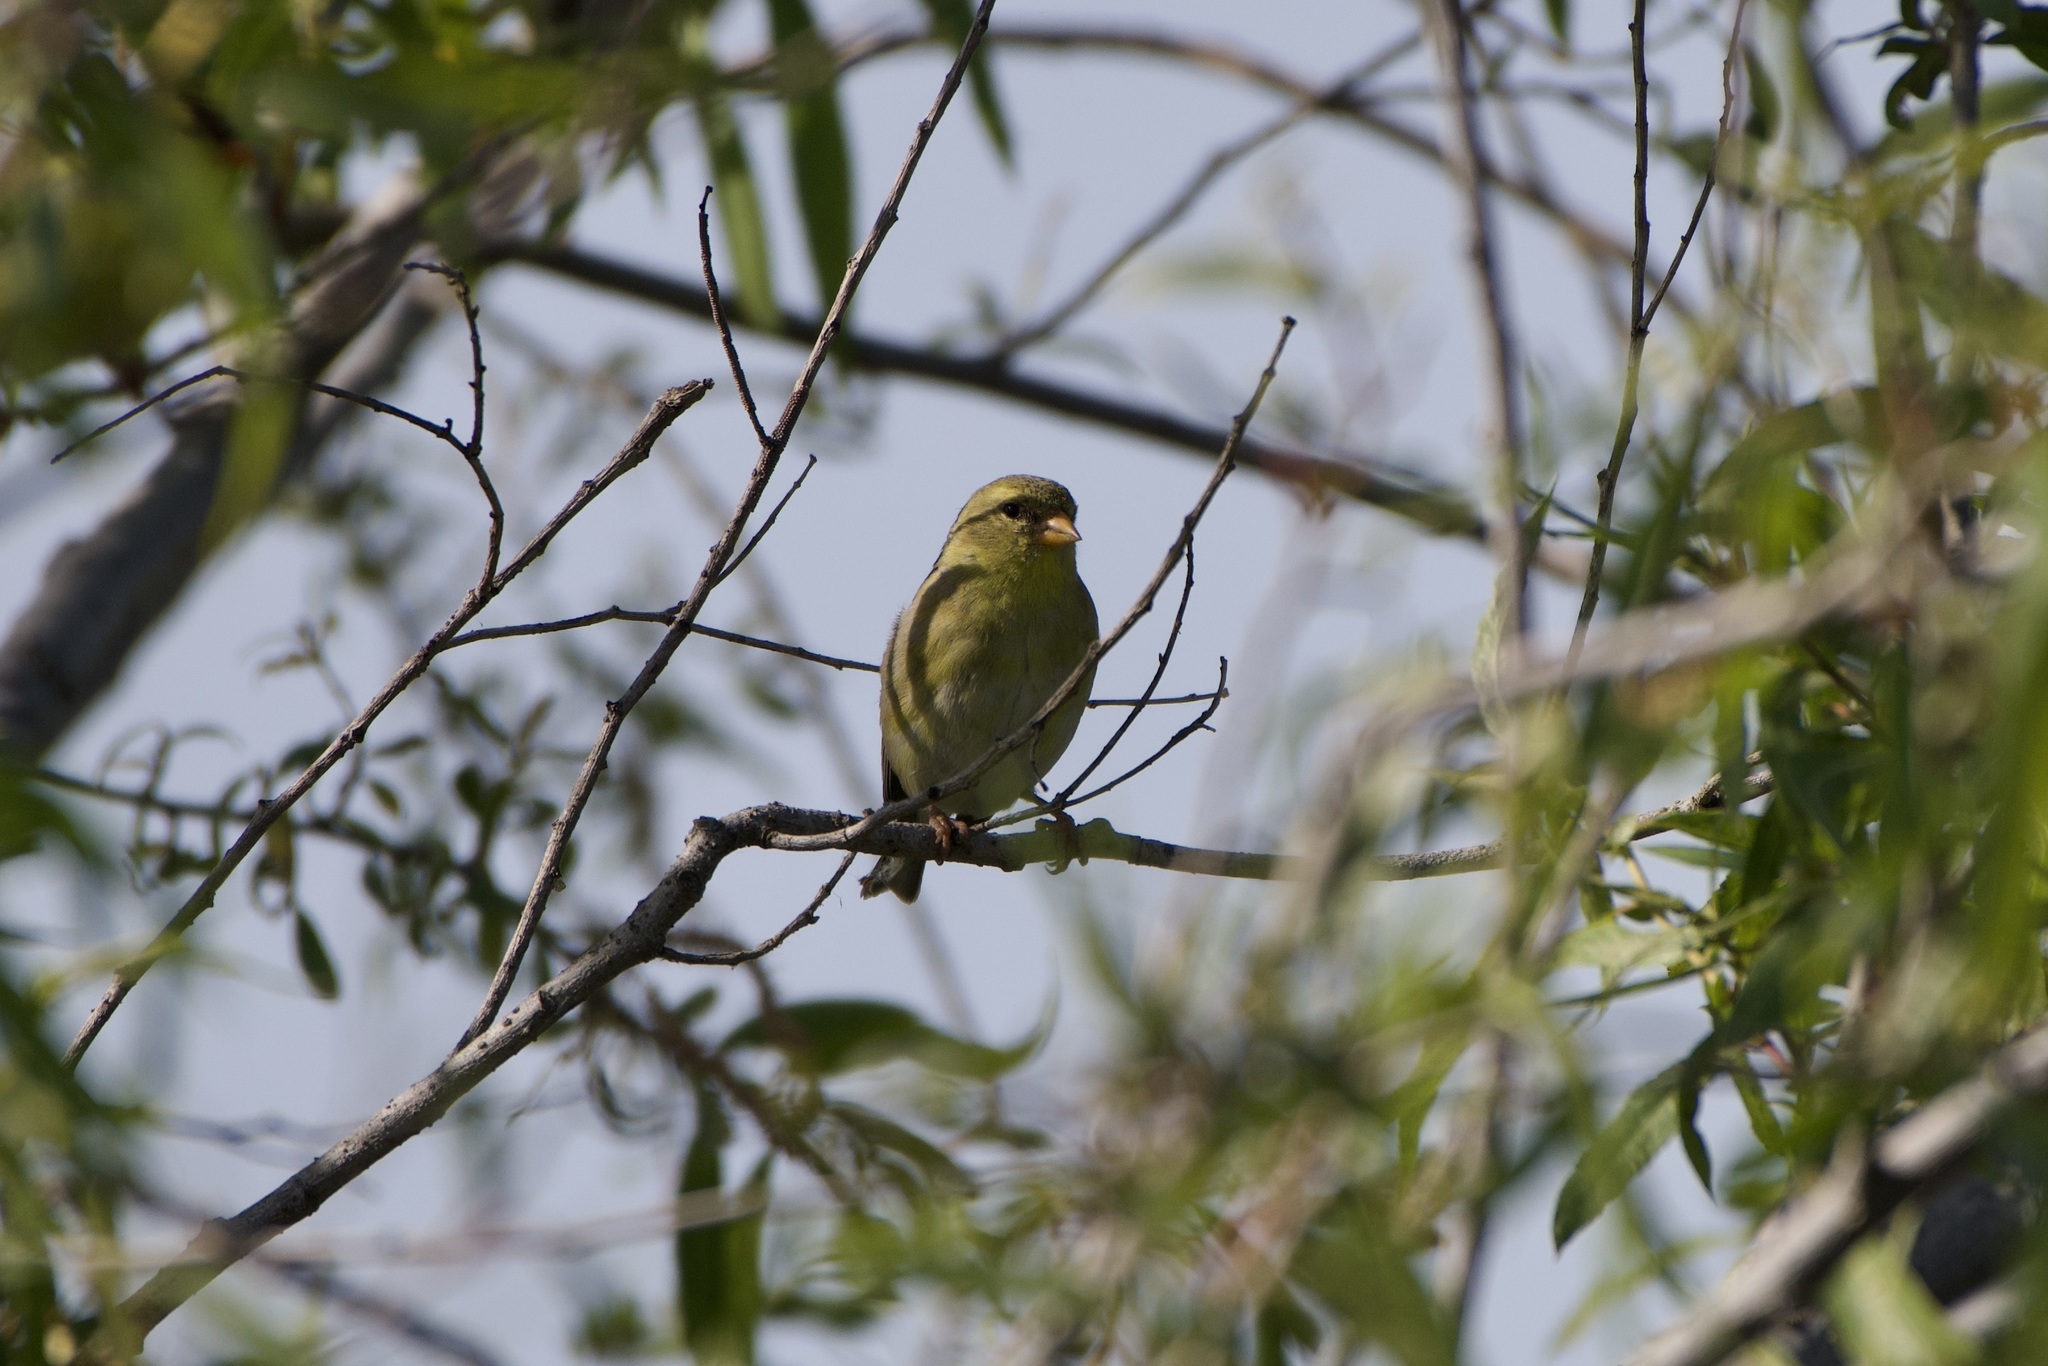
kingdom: Animalia
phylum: Chordata
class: Aves
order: Passeriformes
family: Fringillidae
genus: Spinus
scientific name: Spinus tristis
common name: American goldfinch
